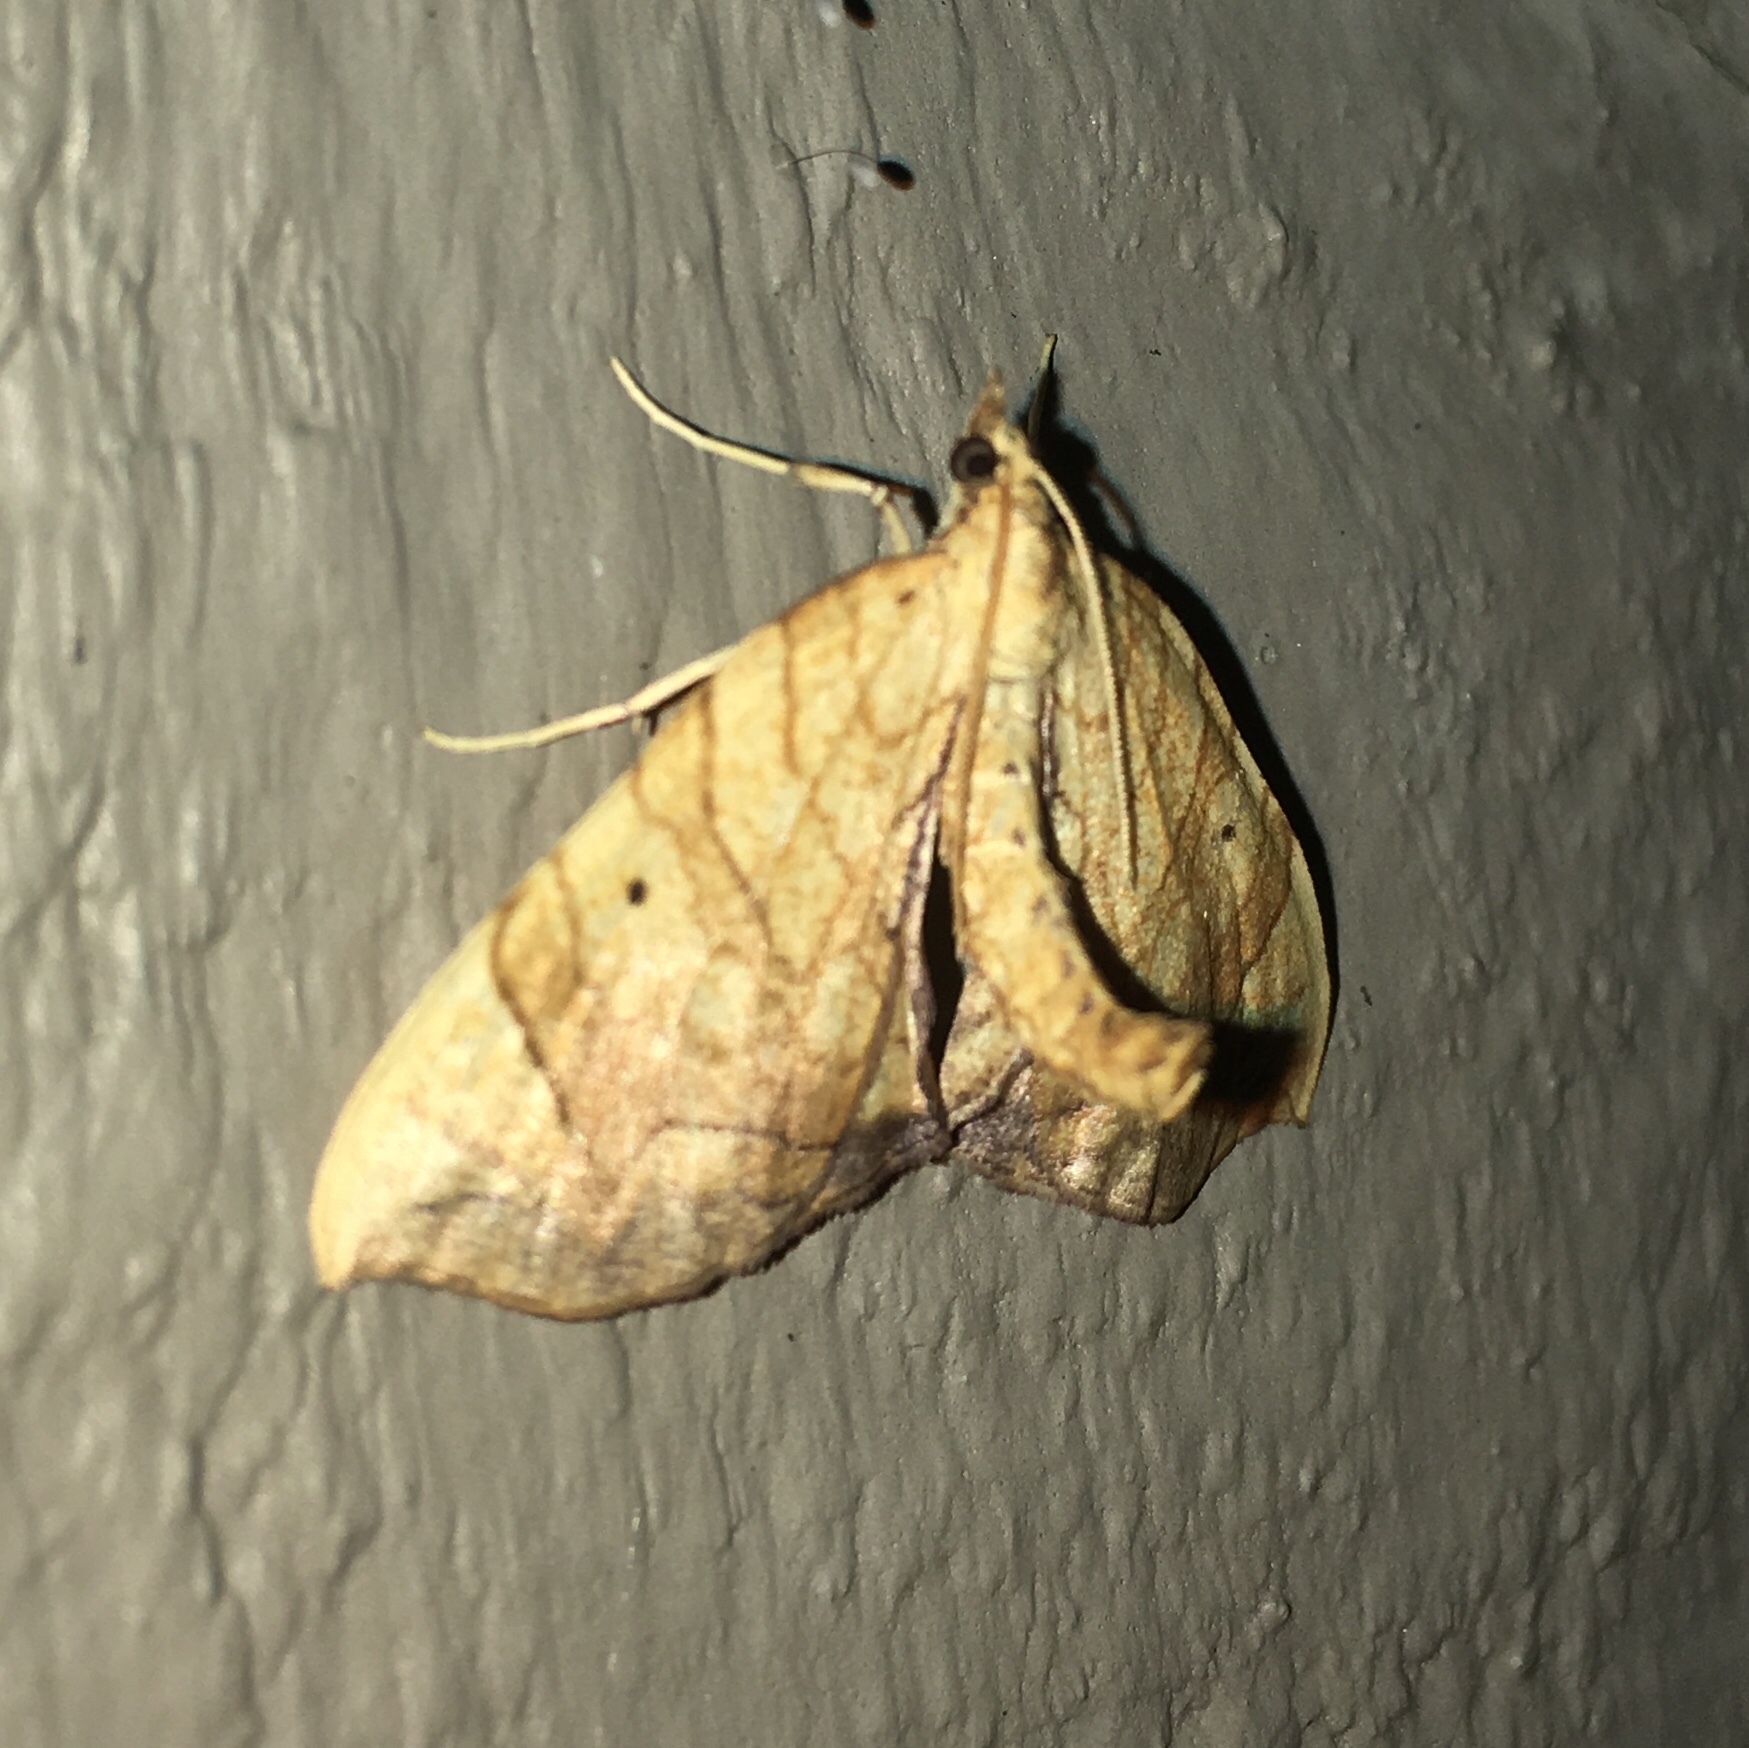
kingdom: Animalia
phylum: Arthropoda
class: Insecta
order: Lepidoptera
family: Geometridae
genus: Eulithis
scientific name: Eulithis
